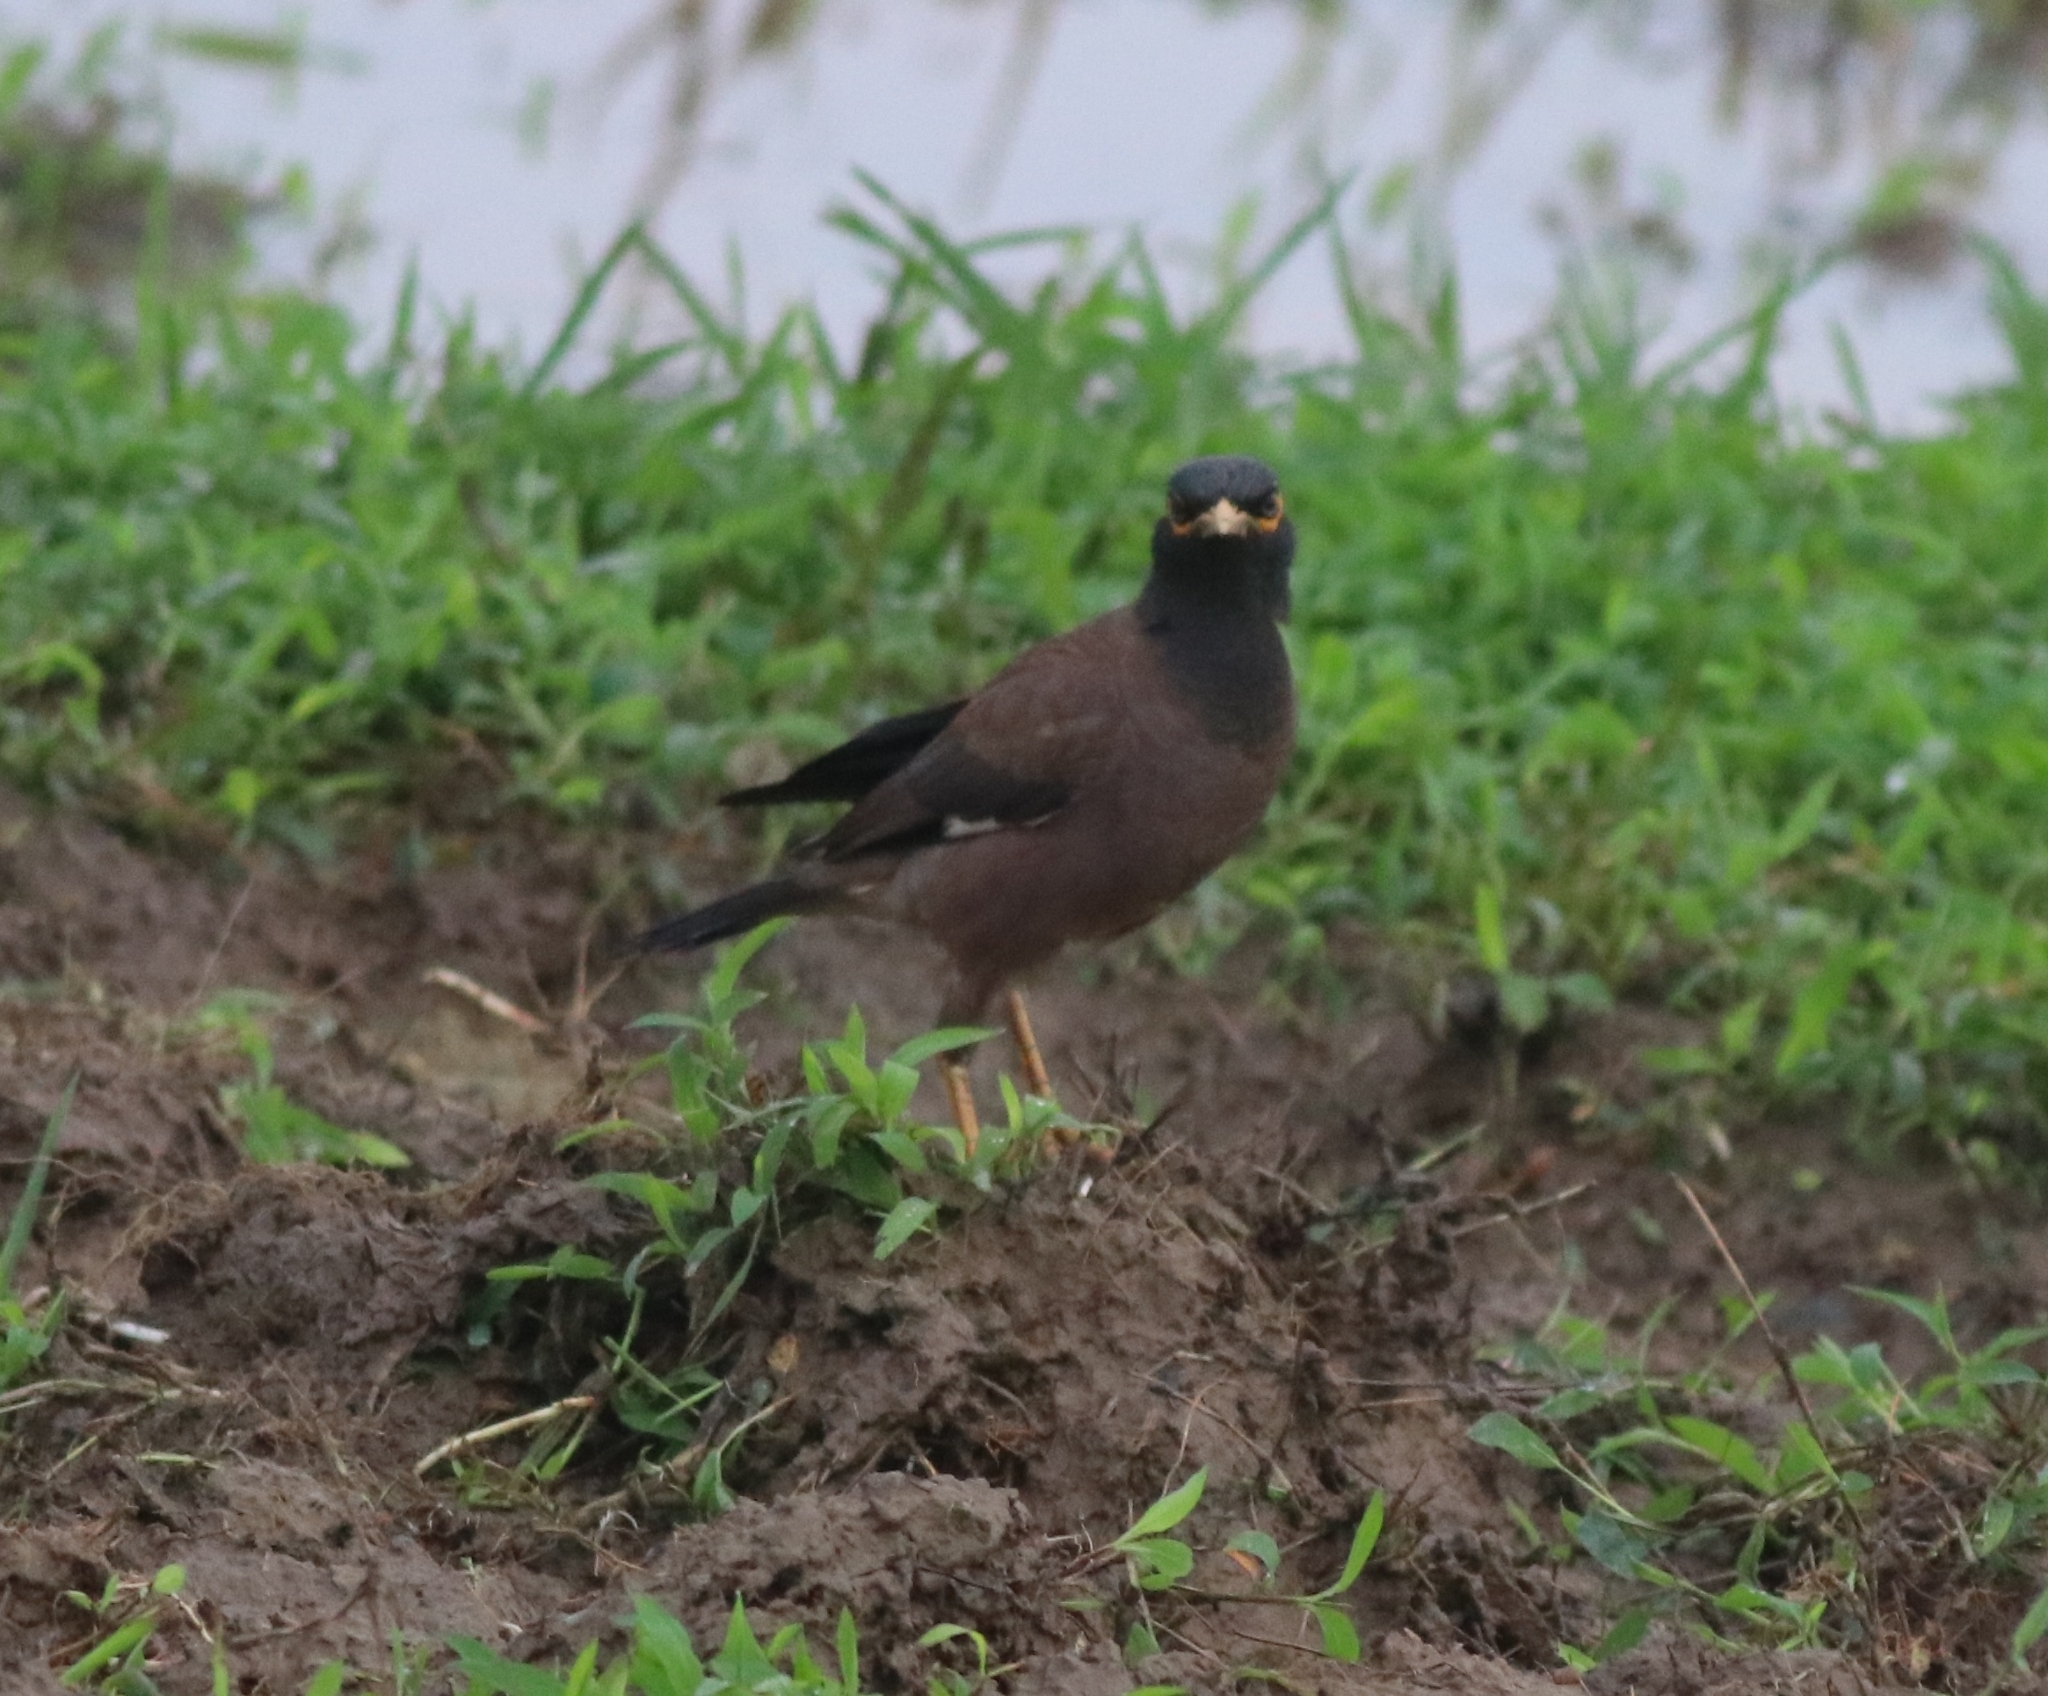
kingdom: Animalia
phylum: Chordata
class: Aves
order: Passeriformes
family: Sturnidae
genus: Acridotheres
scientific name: Acridotheres tristis
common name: Common myna
